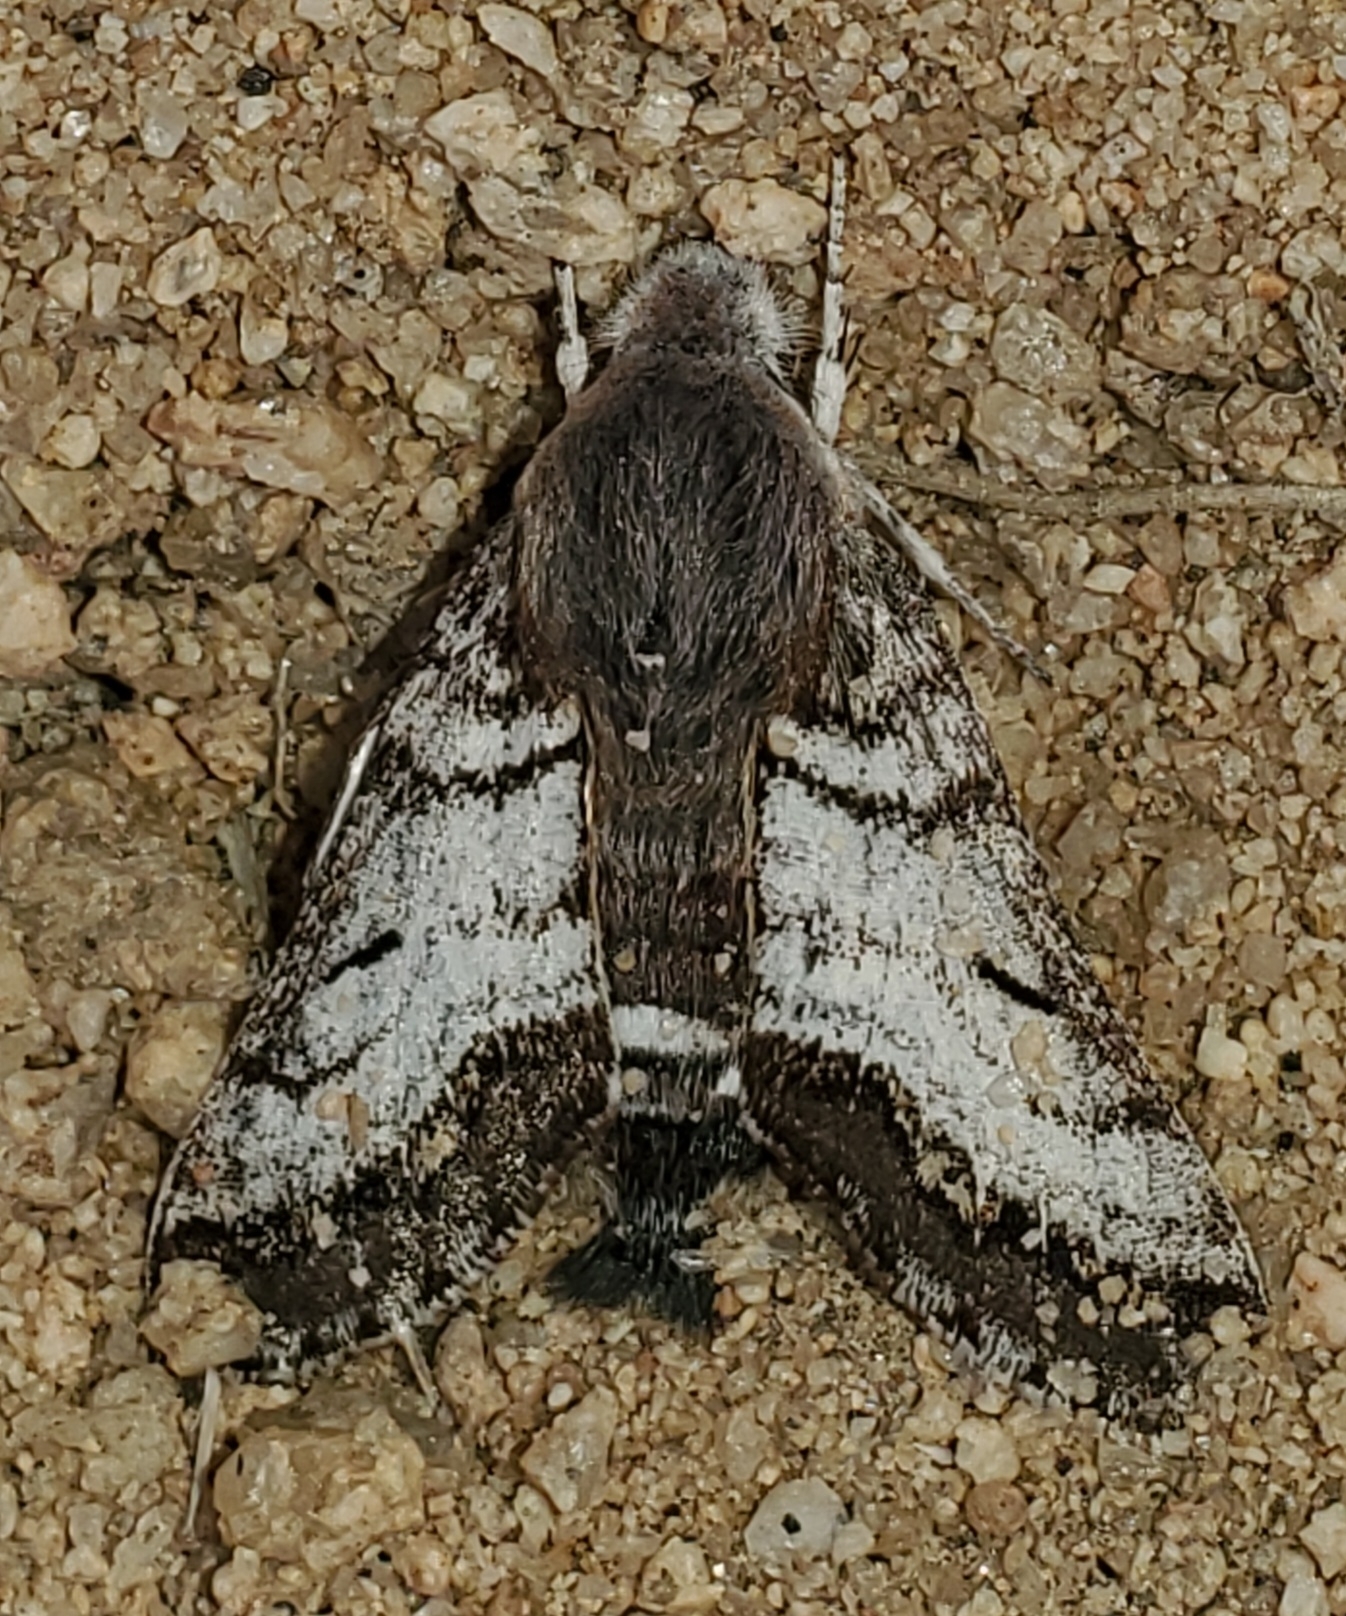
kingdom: Animalia
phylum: Arthropoda
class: Insecta
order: Lepidoptera
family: Sphingidae
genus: Euproserpinus
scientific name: Euproserpinus phaeton
